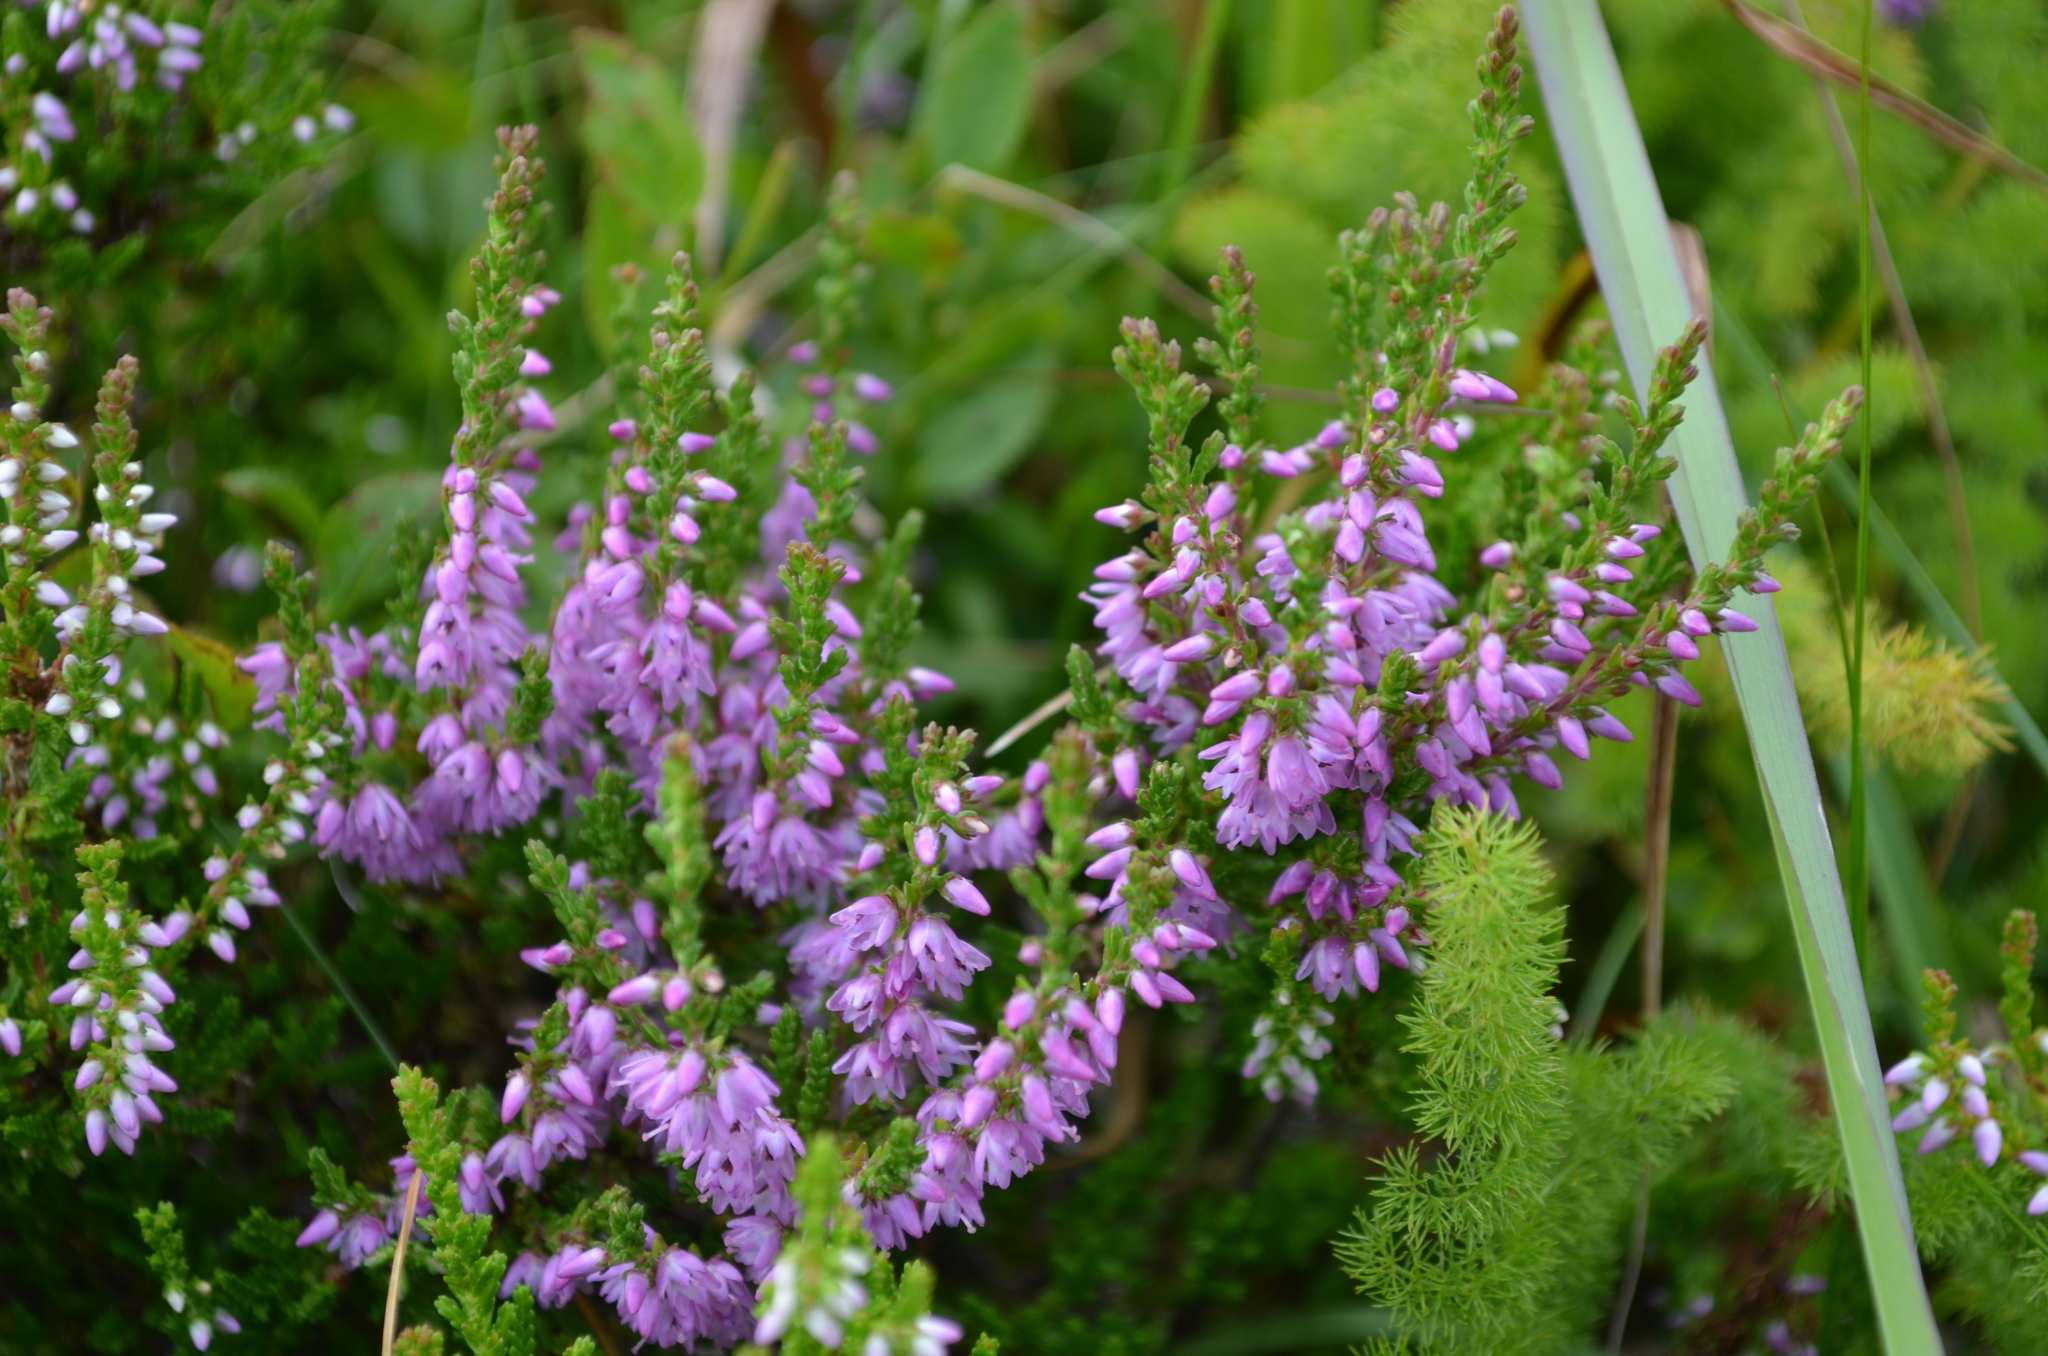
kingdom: Plantae
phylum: Tracheophyta
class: Magnoliopsida
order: Ericales
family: Ericaceae
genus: Calluna
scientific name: Calluna vulgaris
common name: Heather
